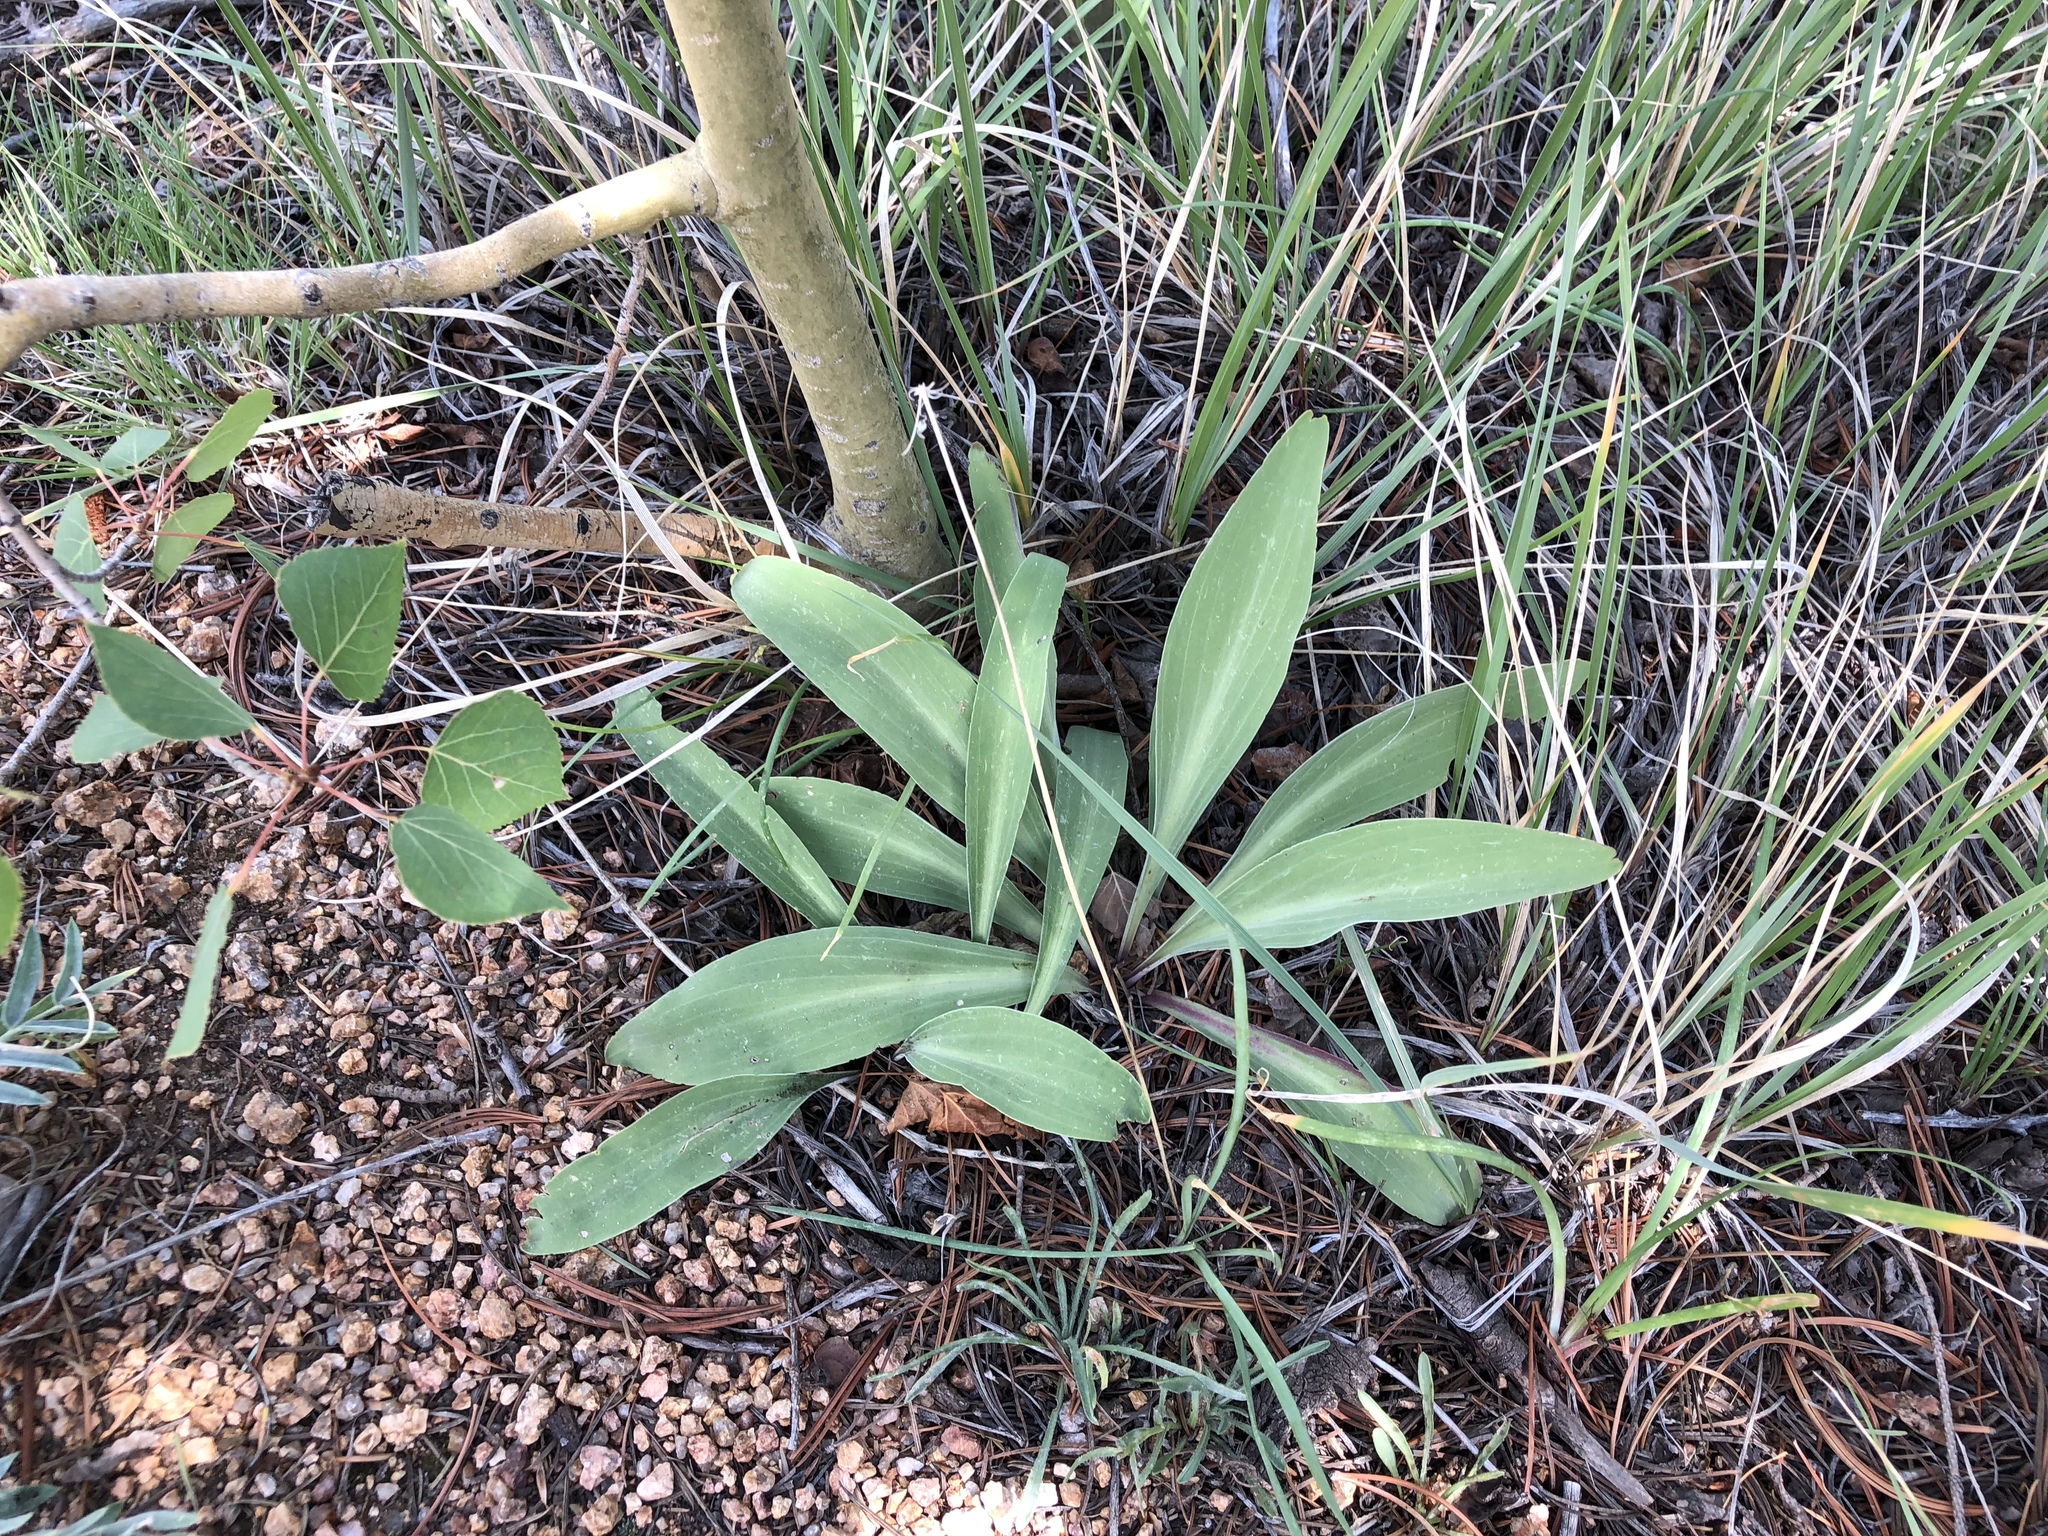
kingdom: Plantae
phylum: Tracheophyta
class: Magnoliopsida
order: Gentianales
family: Gentianaceae
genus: Frasera
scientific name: Frasera speciosa
